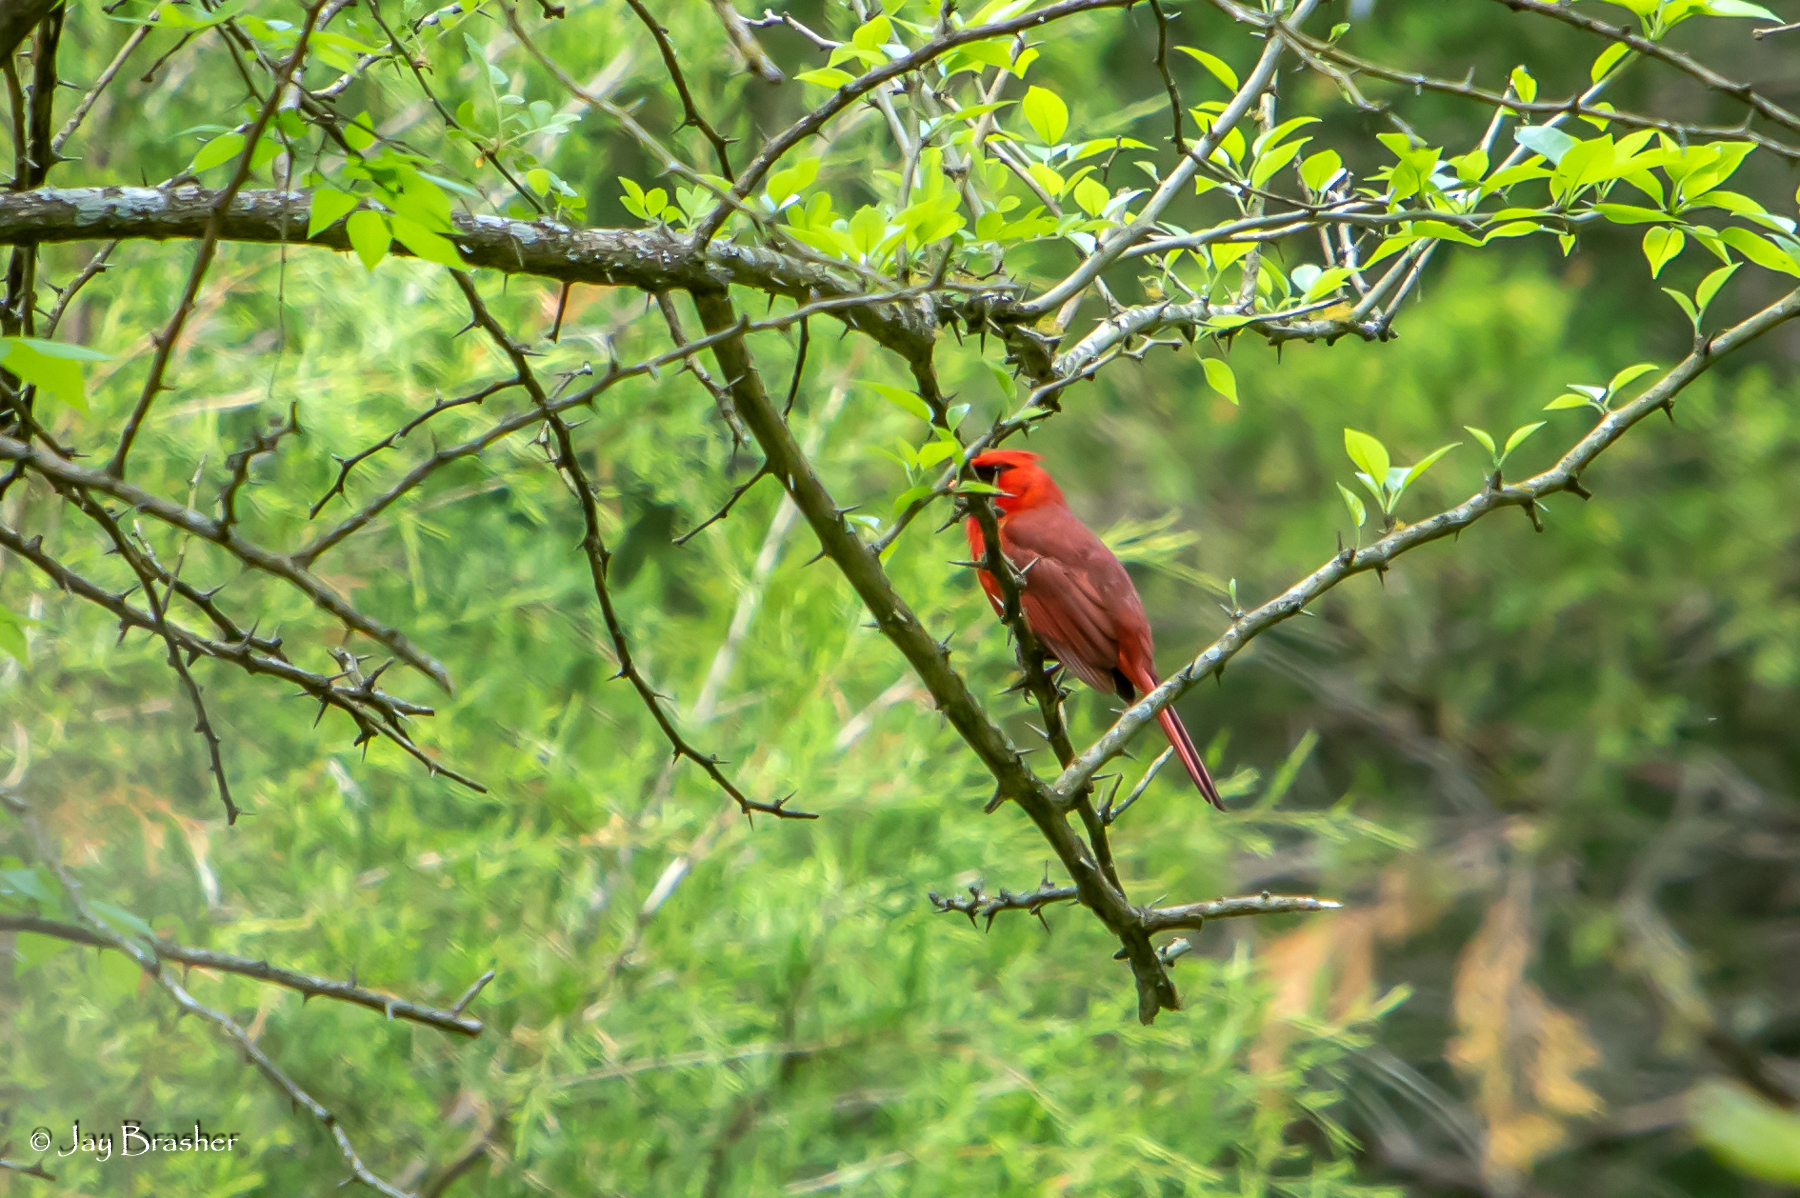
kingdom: Animalia
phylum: Chordata
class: Aves
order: Passeriformes
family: Cardinalidae
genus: Cardinalis
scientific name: Cardinalis cardinalis
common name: Northern cardinal
